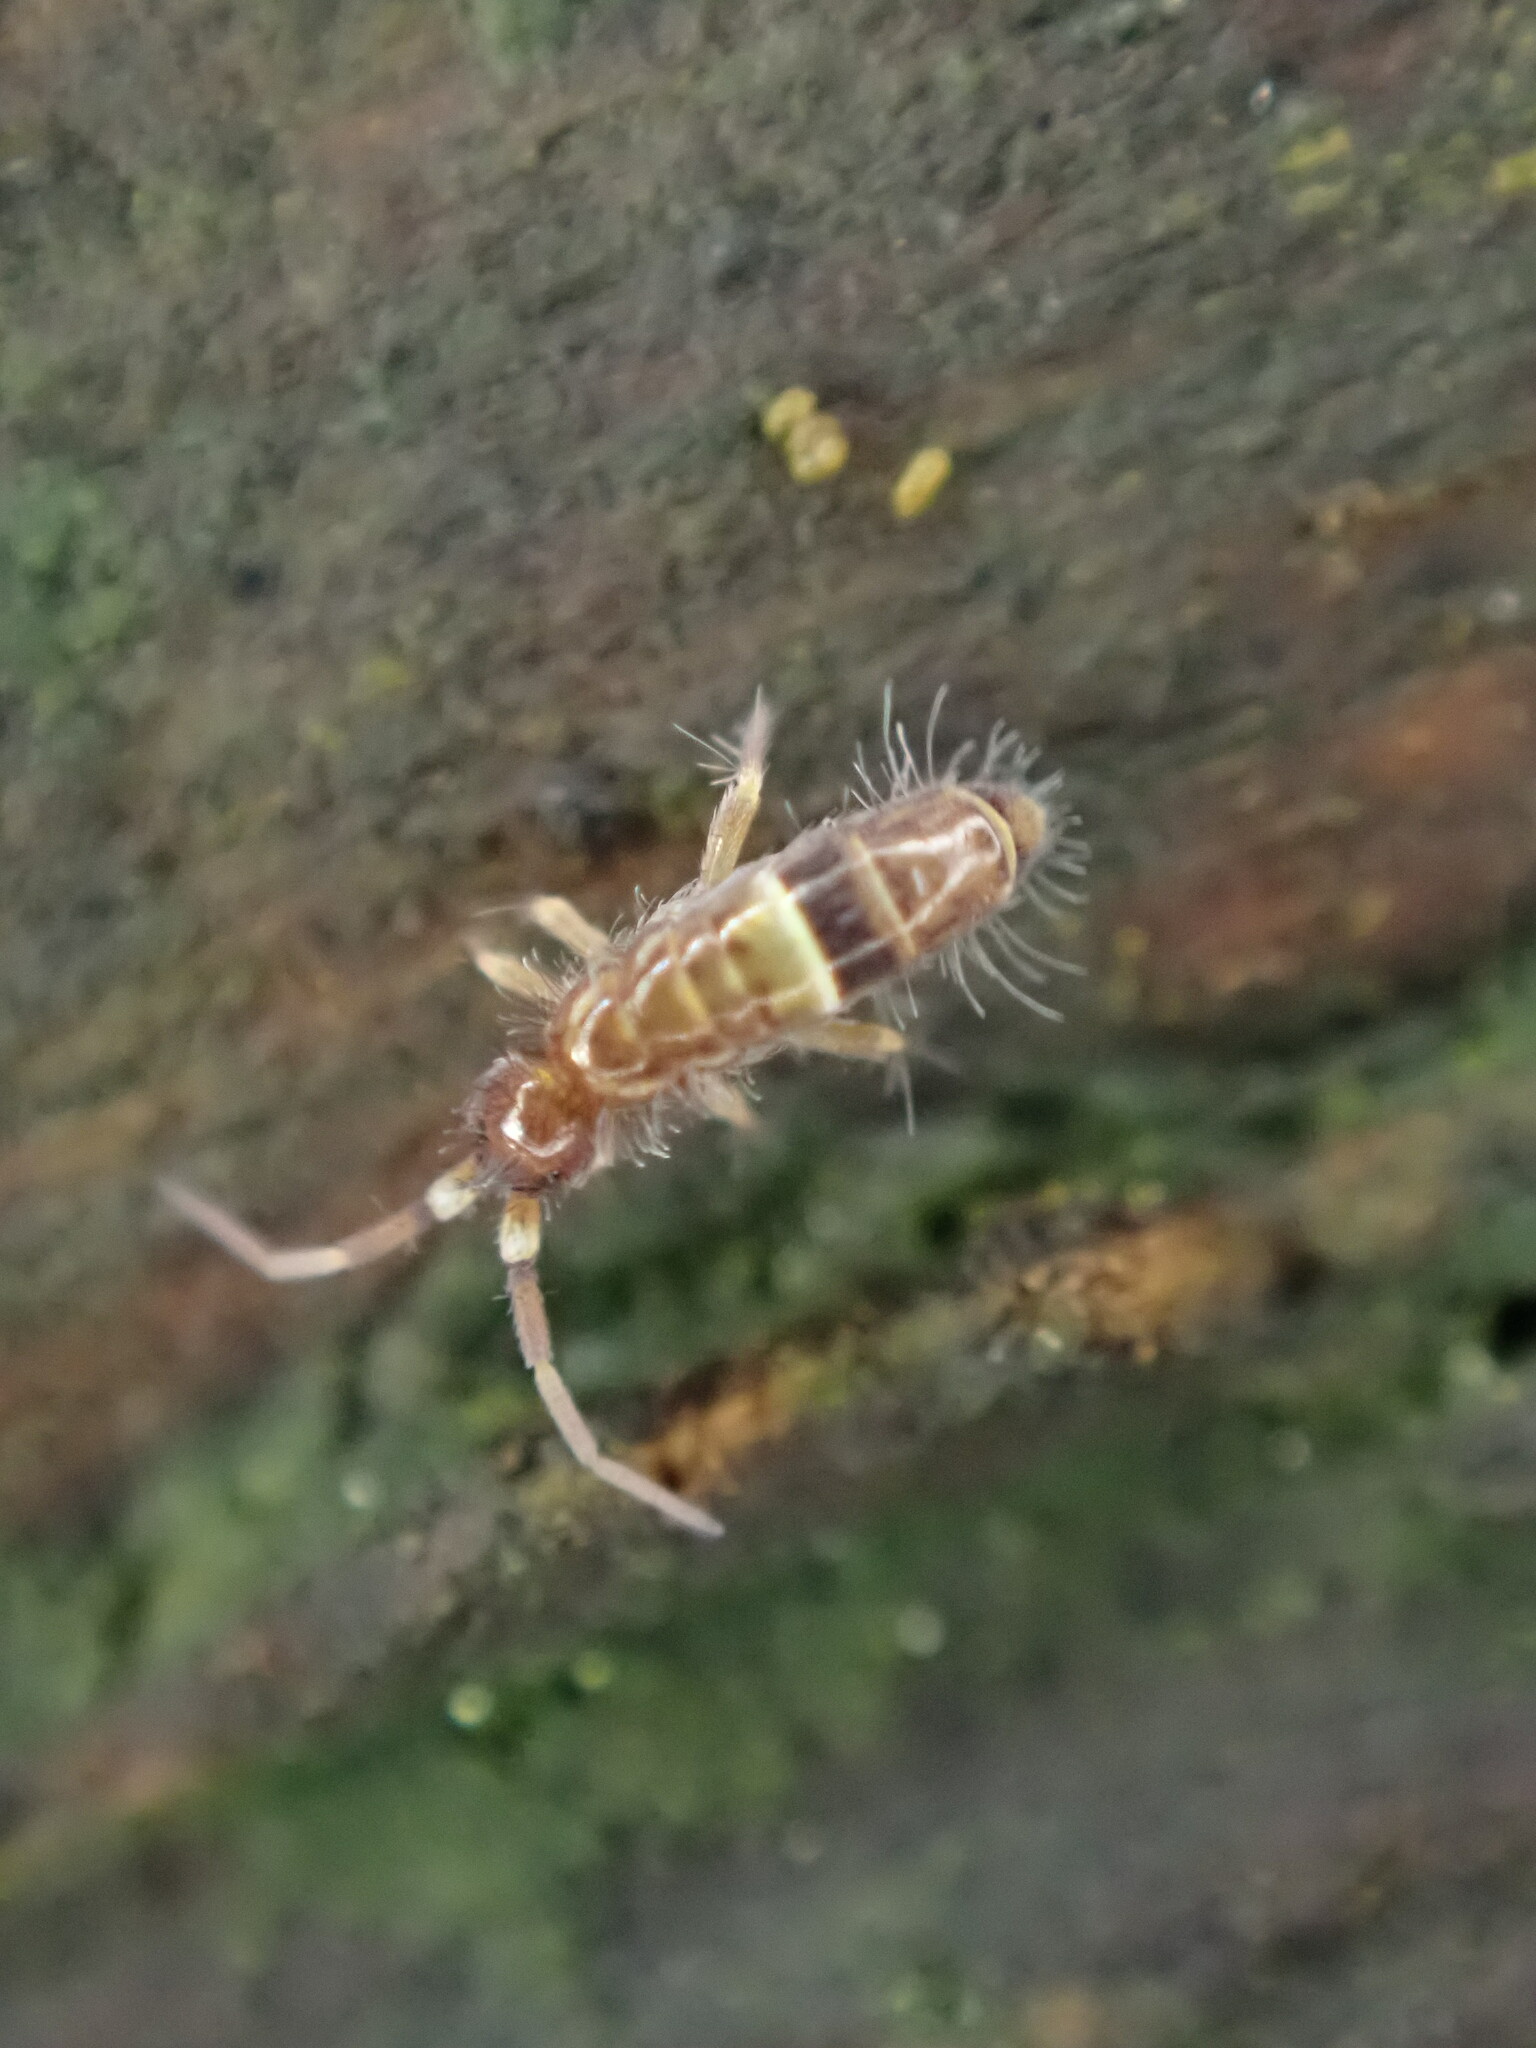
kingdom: Animalia
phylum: Arthropoda
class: Collembola
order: Entomobryomorpha
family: Orchesellidae
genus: Orchesella
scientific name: Orchesella cincta
